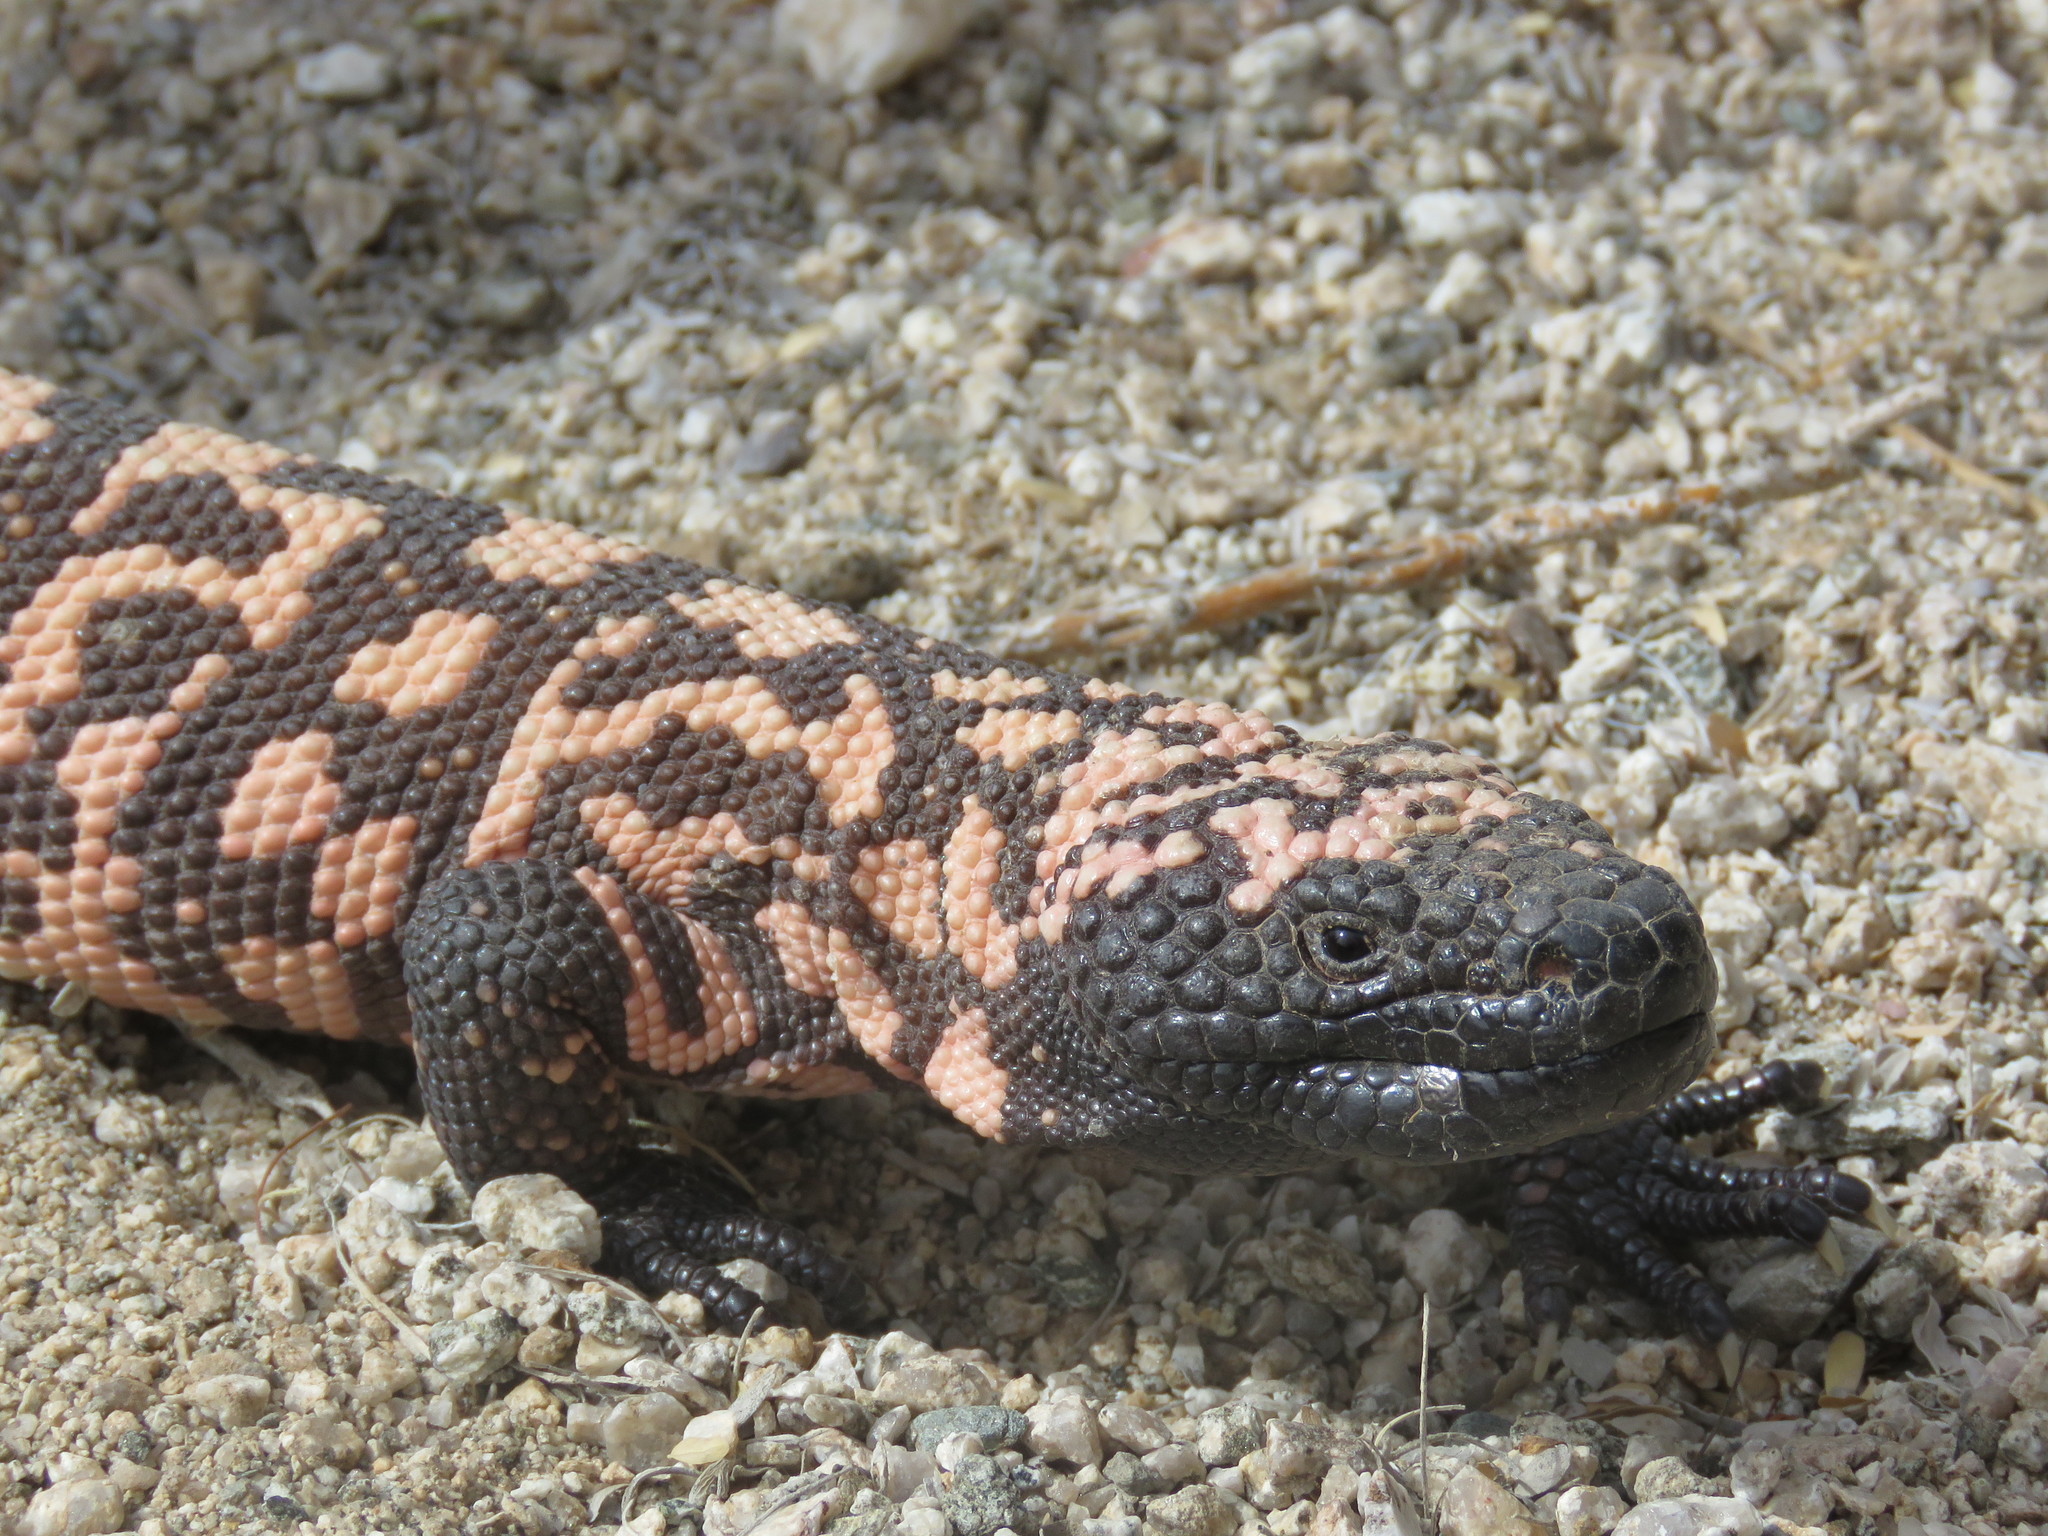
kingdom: Animalia
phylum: Chordata
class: Squamata
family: Helodermatidae
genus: Heloderma
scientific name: Heloderma suspectum
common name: Gila monster
